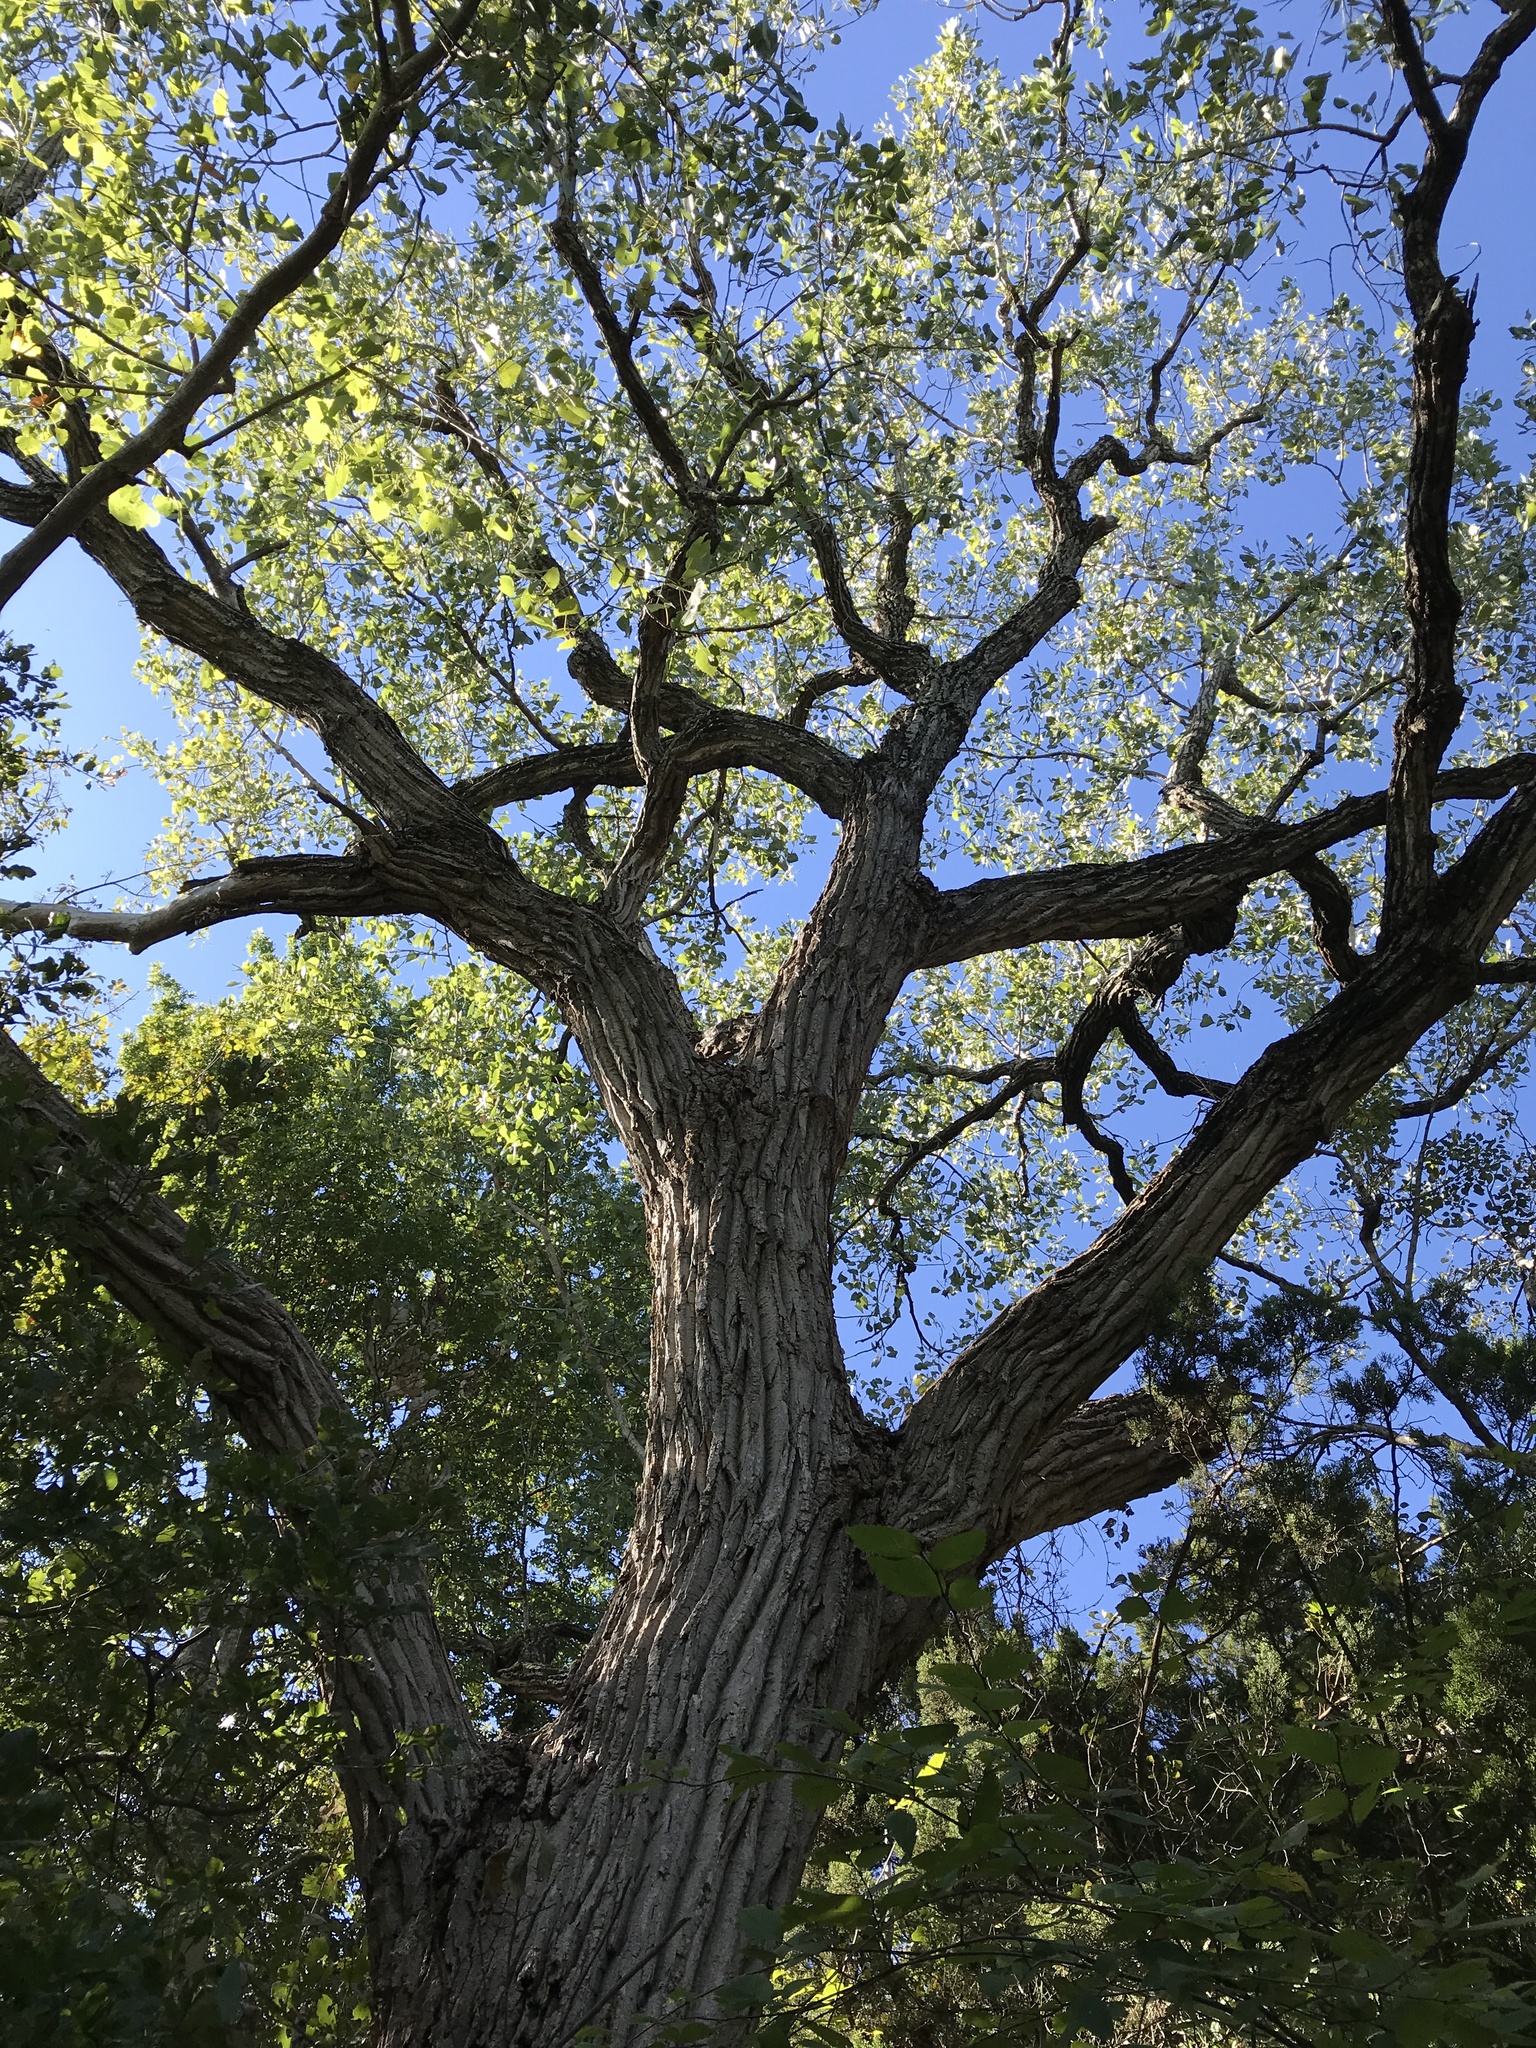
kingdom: Plantae
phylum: Tracheophyta
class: Magnoliopsida
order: Malpighiales
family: Salicaceae
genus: Populus
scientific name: Populus deltoides
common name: Eastern cottonwood
